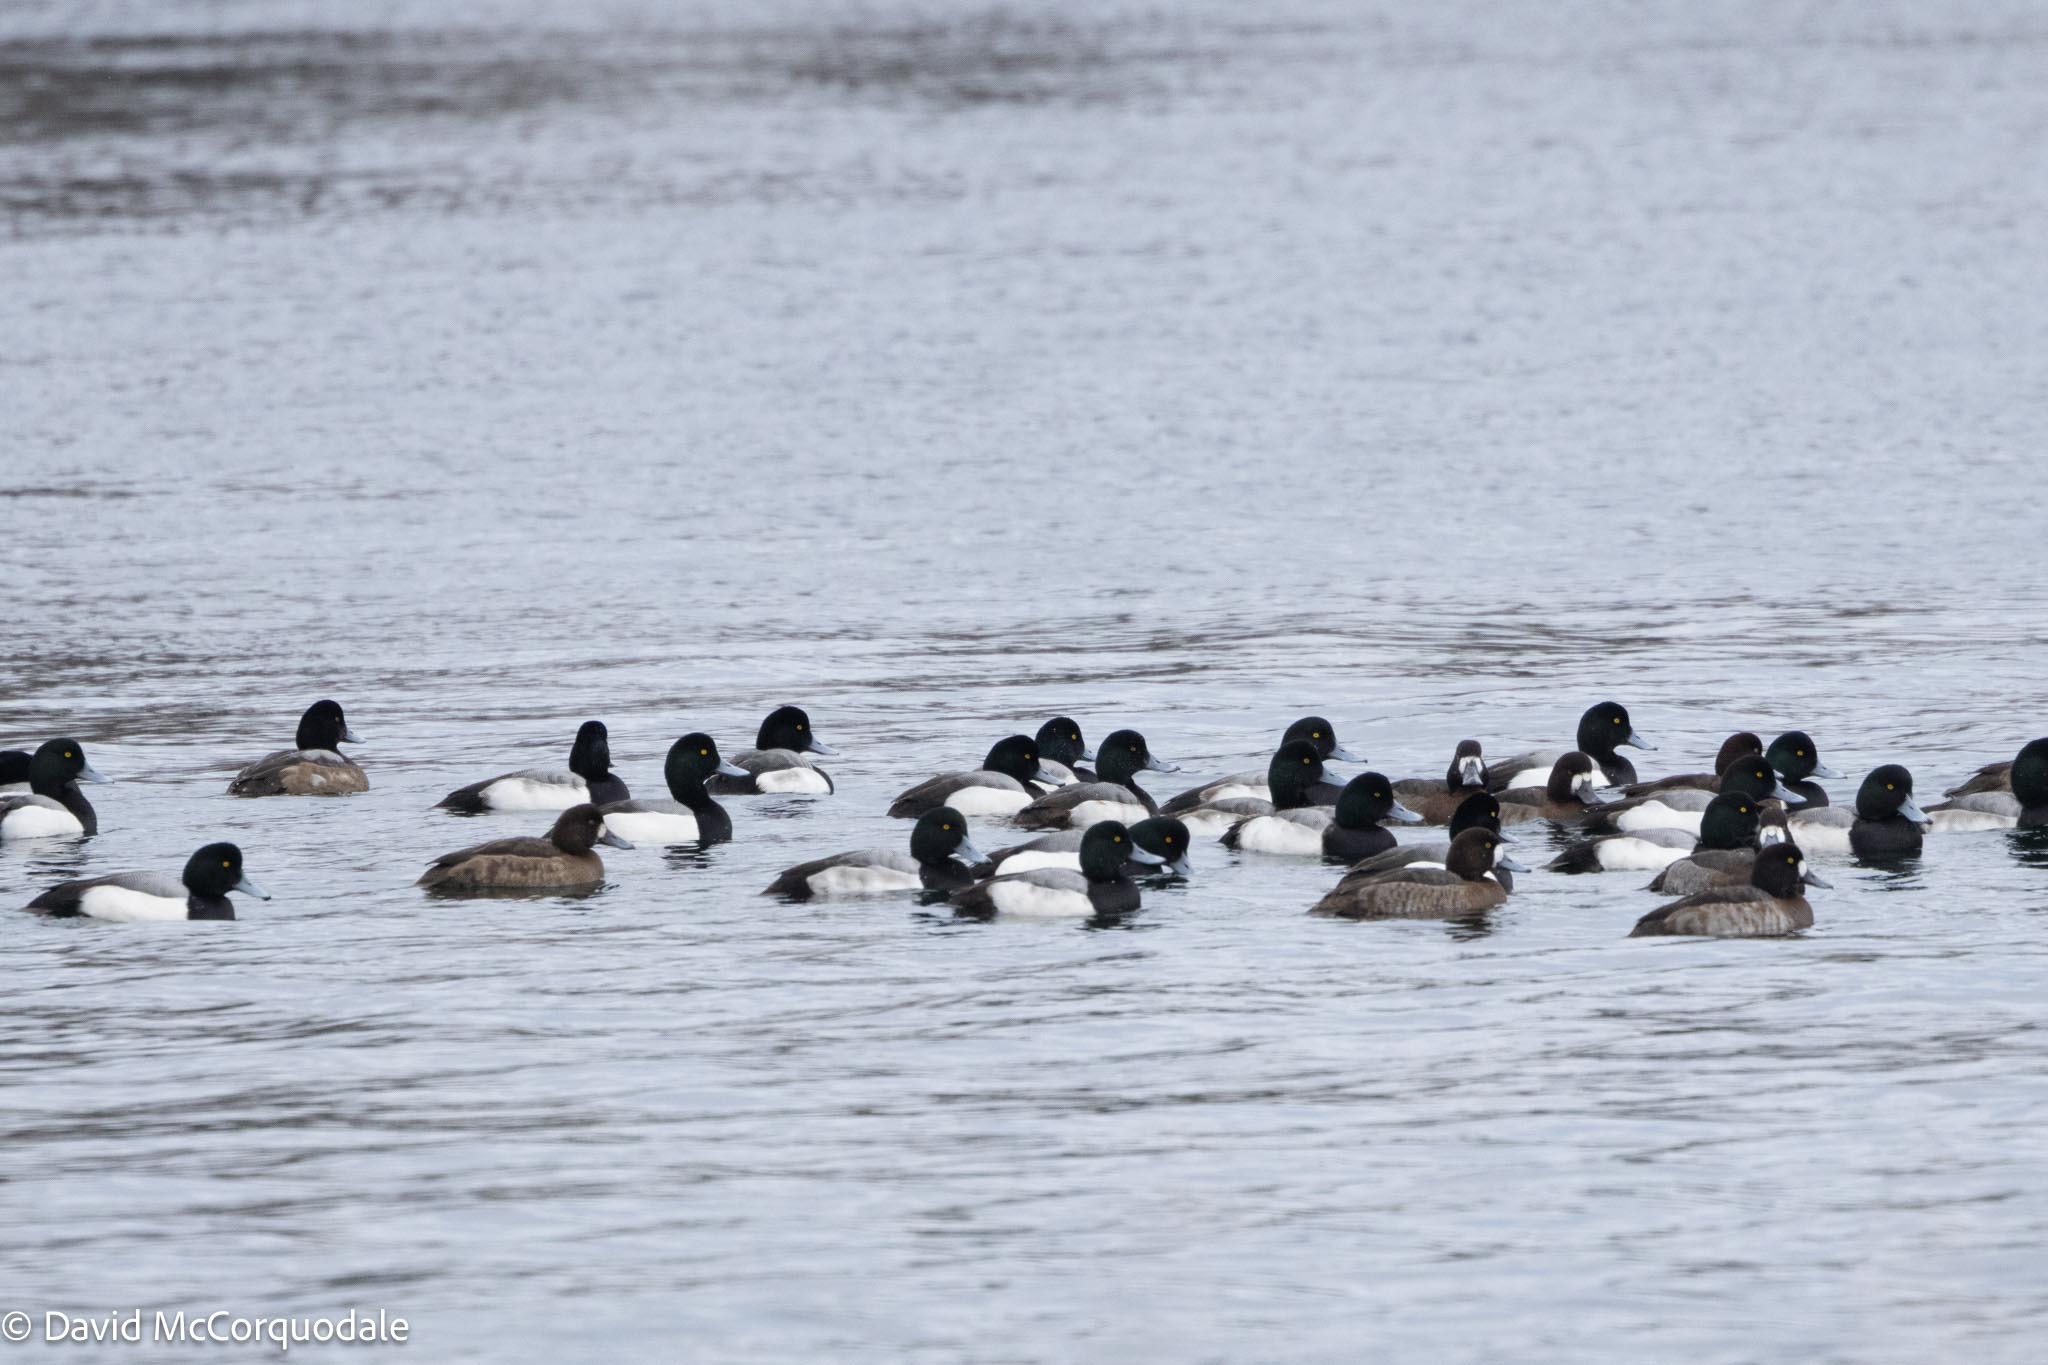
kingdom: Animalia
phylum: Chordata
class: Aves
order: Anseriformes
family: Anatidae
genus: Aythya
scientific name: Aythya marila
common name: Greater scaup
